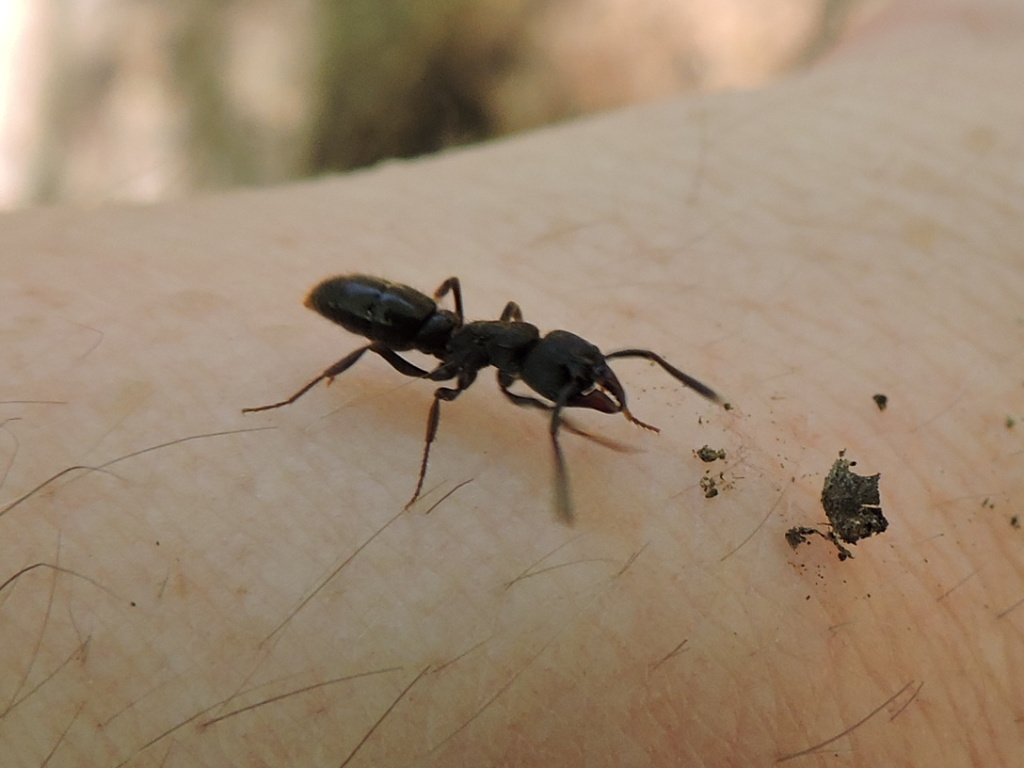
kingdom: Animalia
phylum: Arthropoda
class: Insecta
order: Hymenoptera
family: Formicidae
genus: Pachycondyla
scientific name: Pachycondyla harpax
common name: Ant
